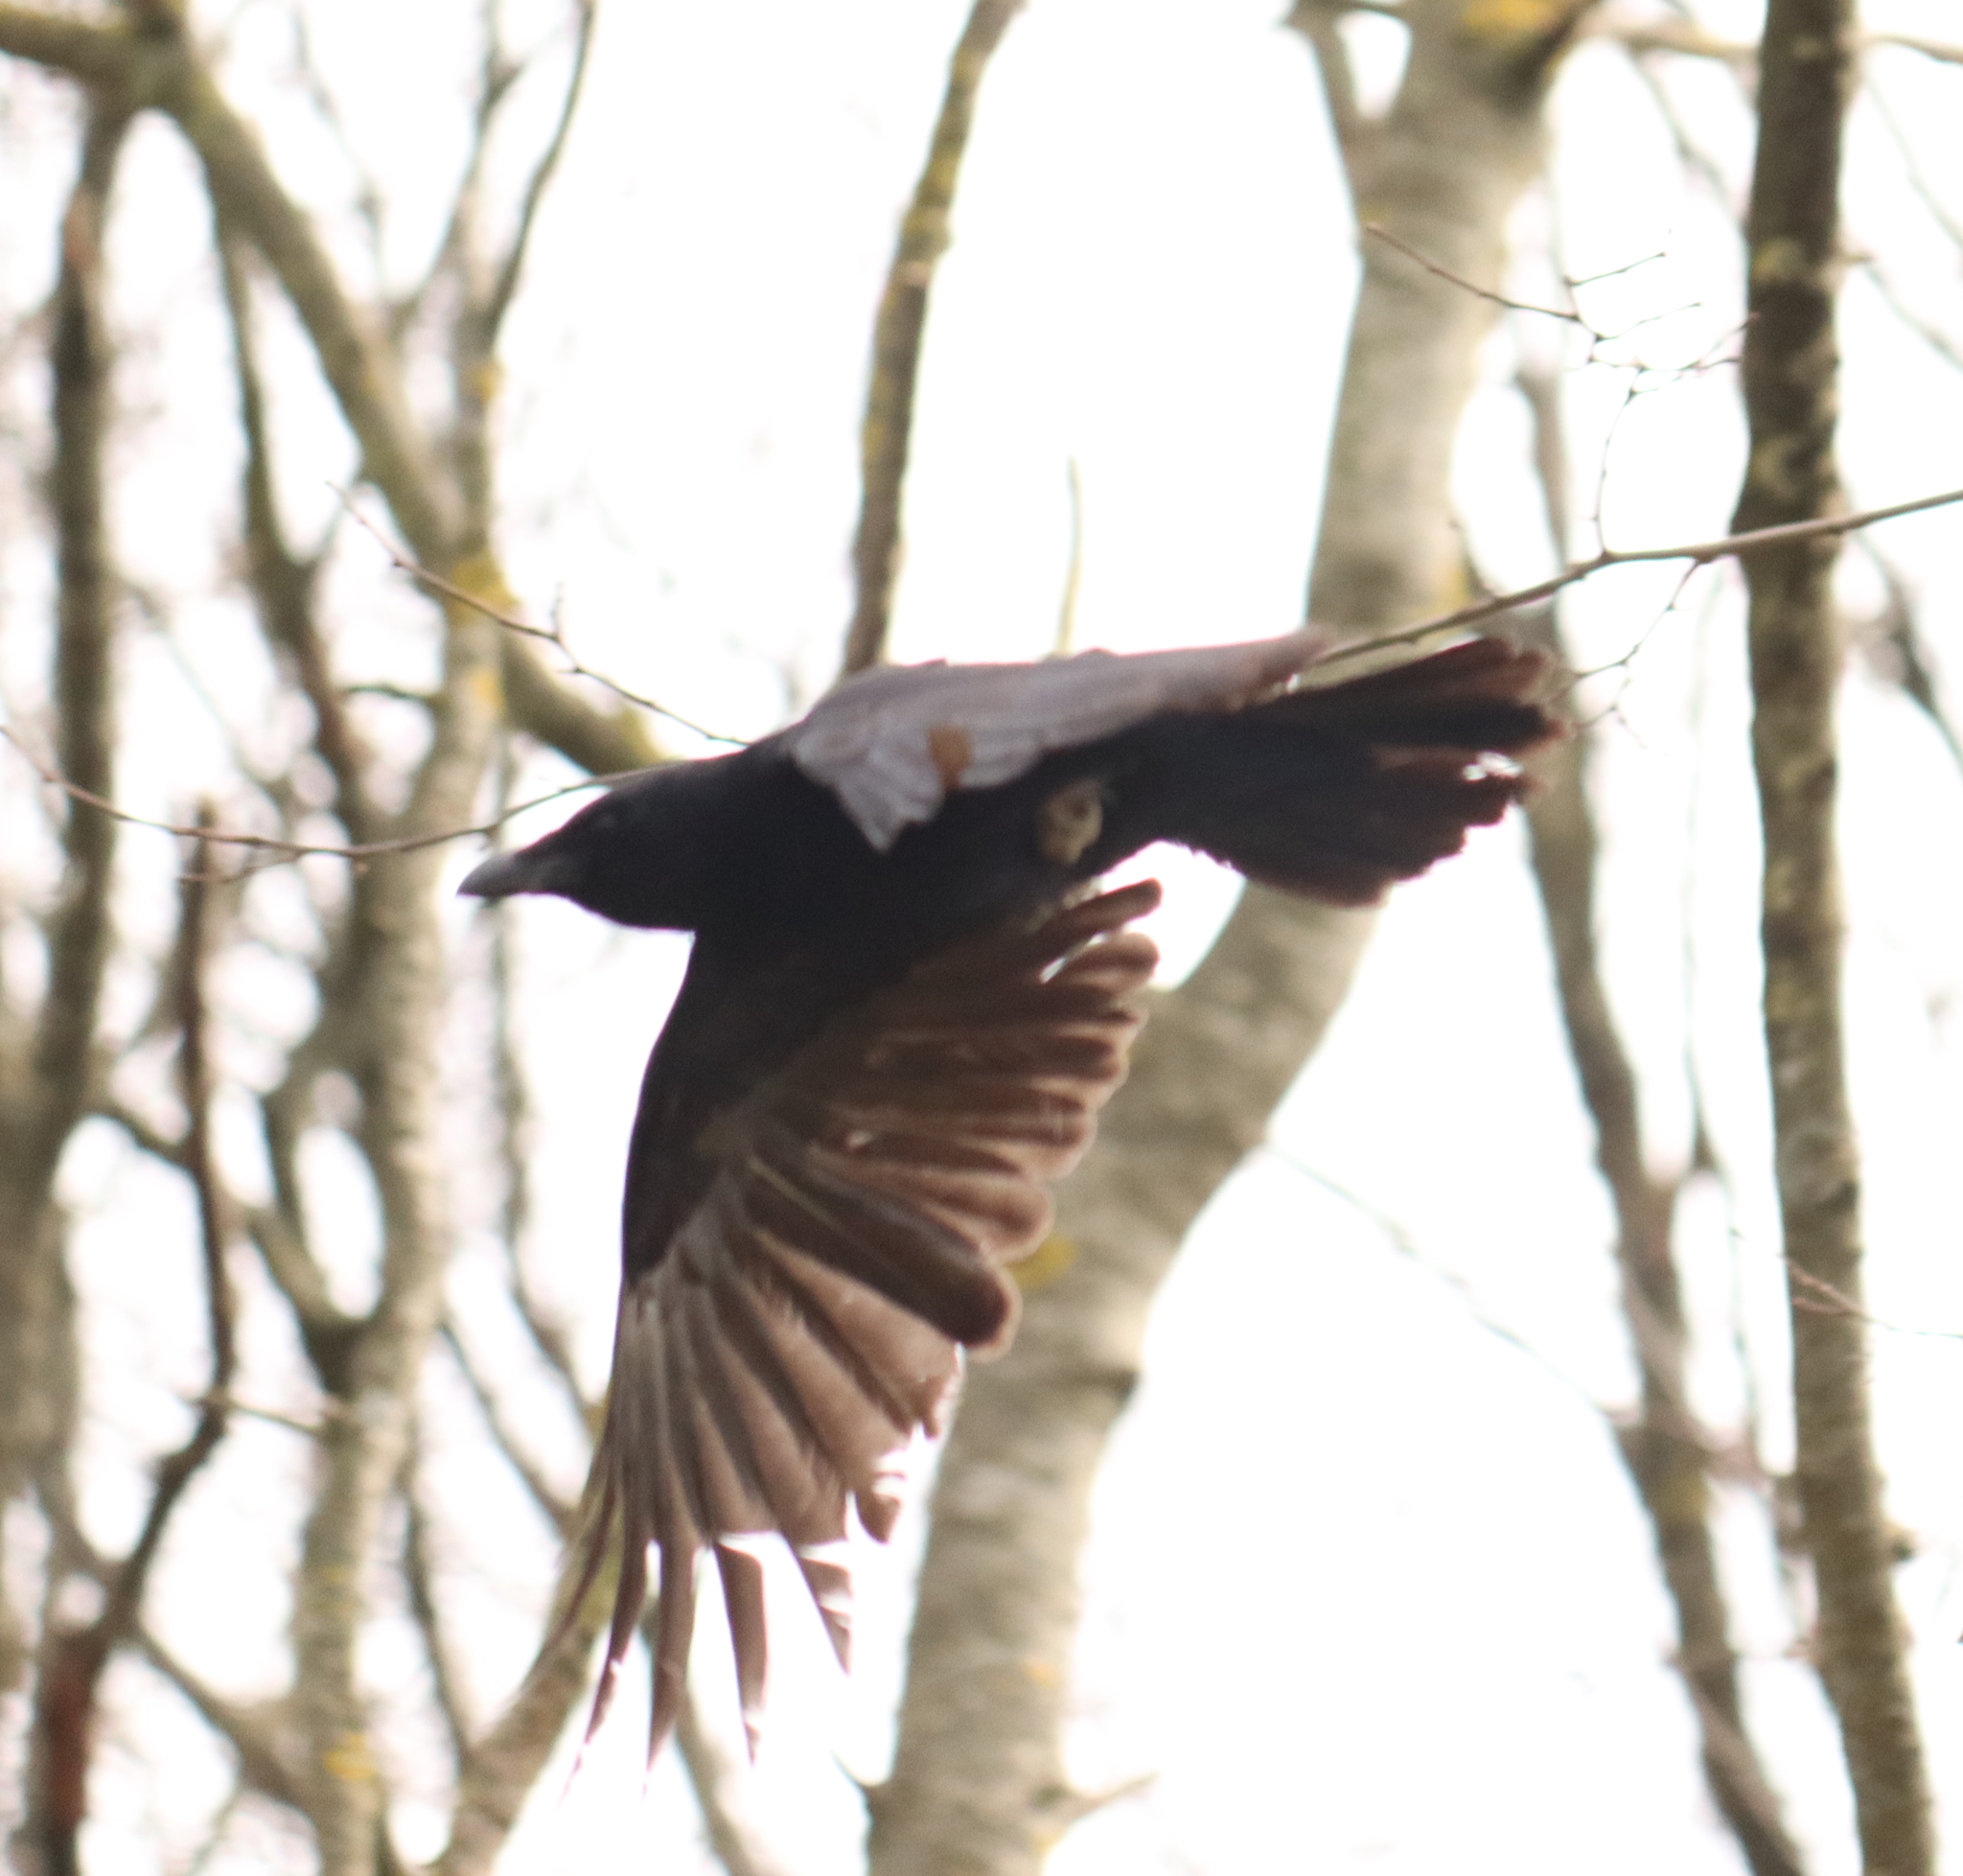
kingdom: Animalia
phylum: Chordata
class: Aves
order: Passeriformes
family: Corvidae
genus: Corvus
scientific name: Corvus corone
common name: Carrion crow
